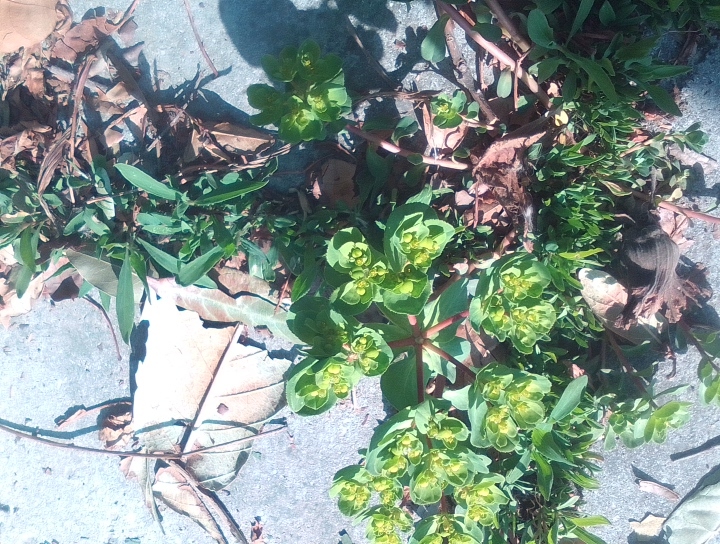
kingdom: Plantae
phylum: Tracheophyta
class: Magnoliopsida
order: Malpighiales
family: Euphorbiaceae
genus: Euphorbia
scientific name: Euphorbia helioscopia
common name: Sun spurge
